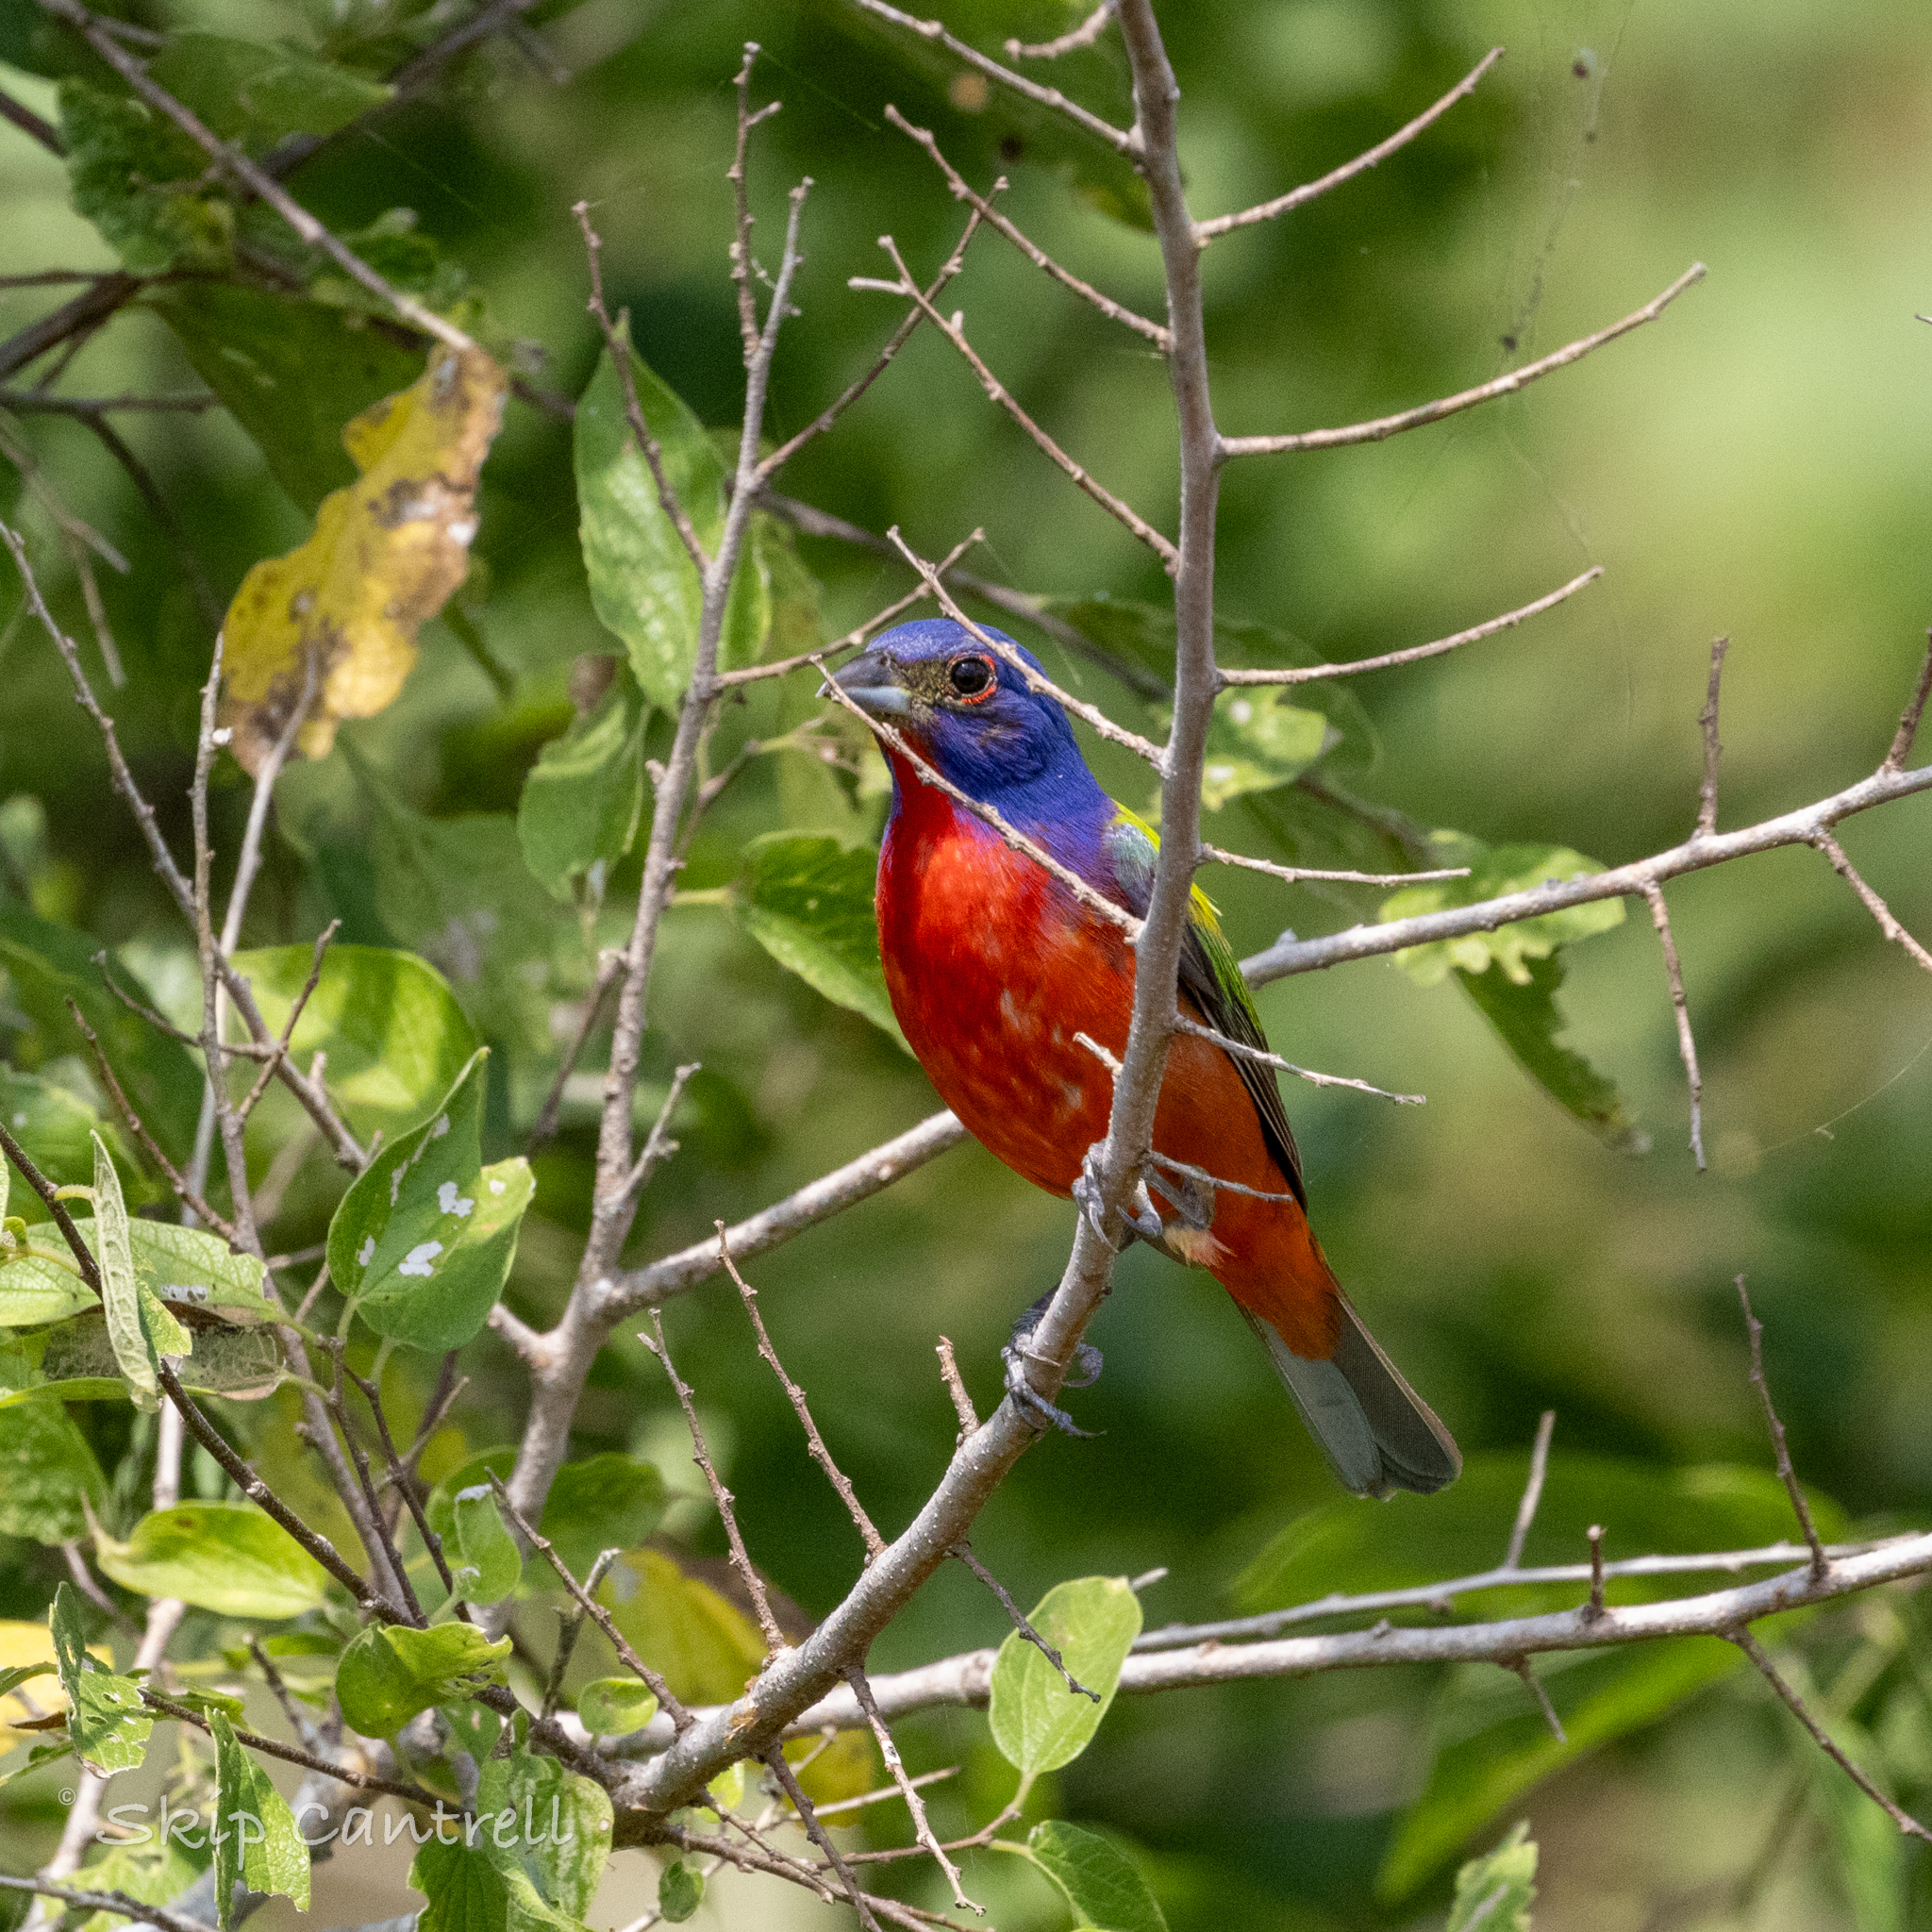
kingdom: Animalia
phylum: Chordata
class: Aves
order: Passeriformes
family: Cardinalidae
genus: Passerina
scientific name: Passerina ciris
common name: Painted bunting
